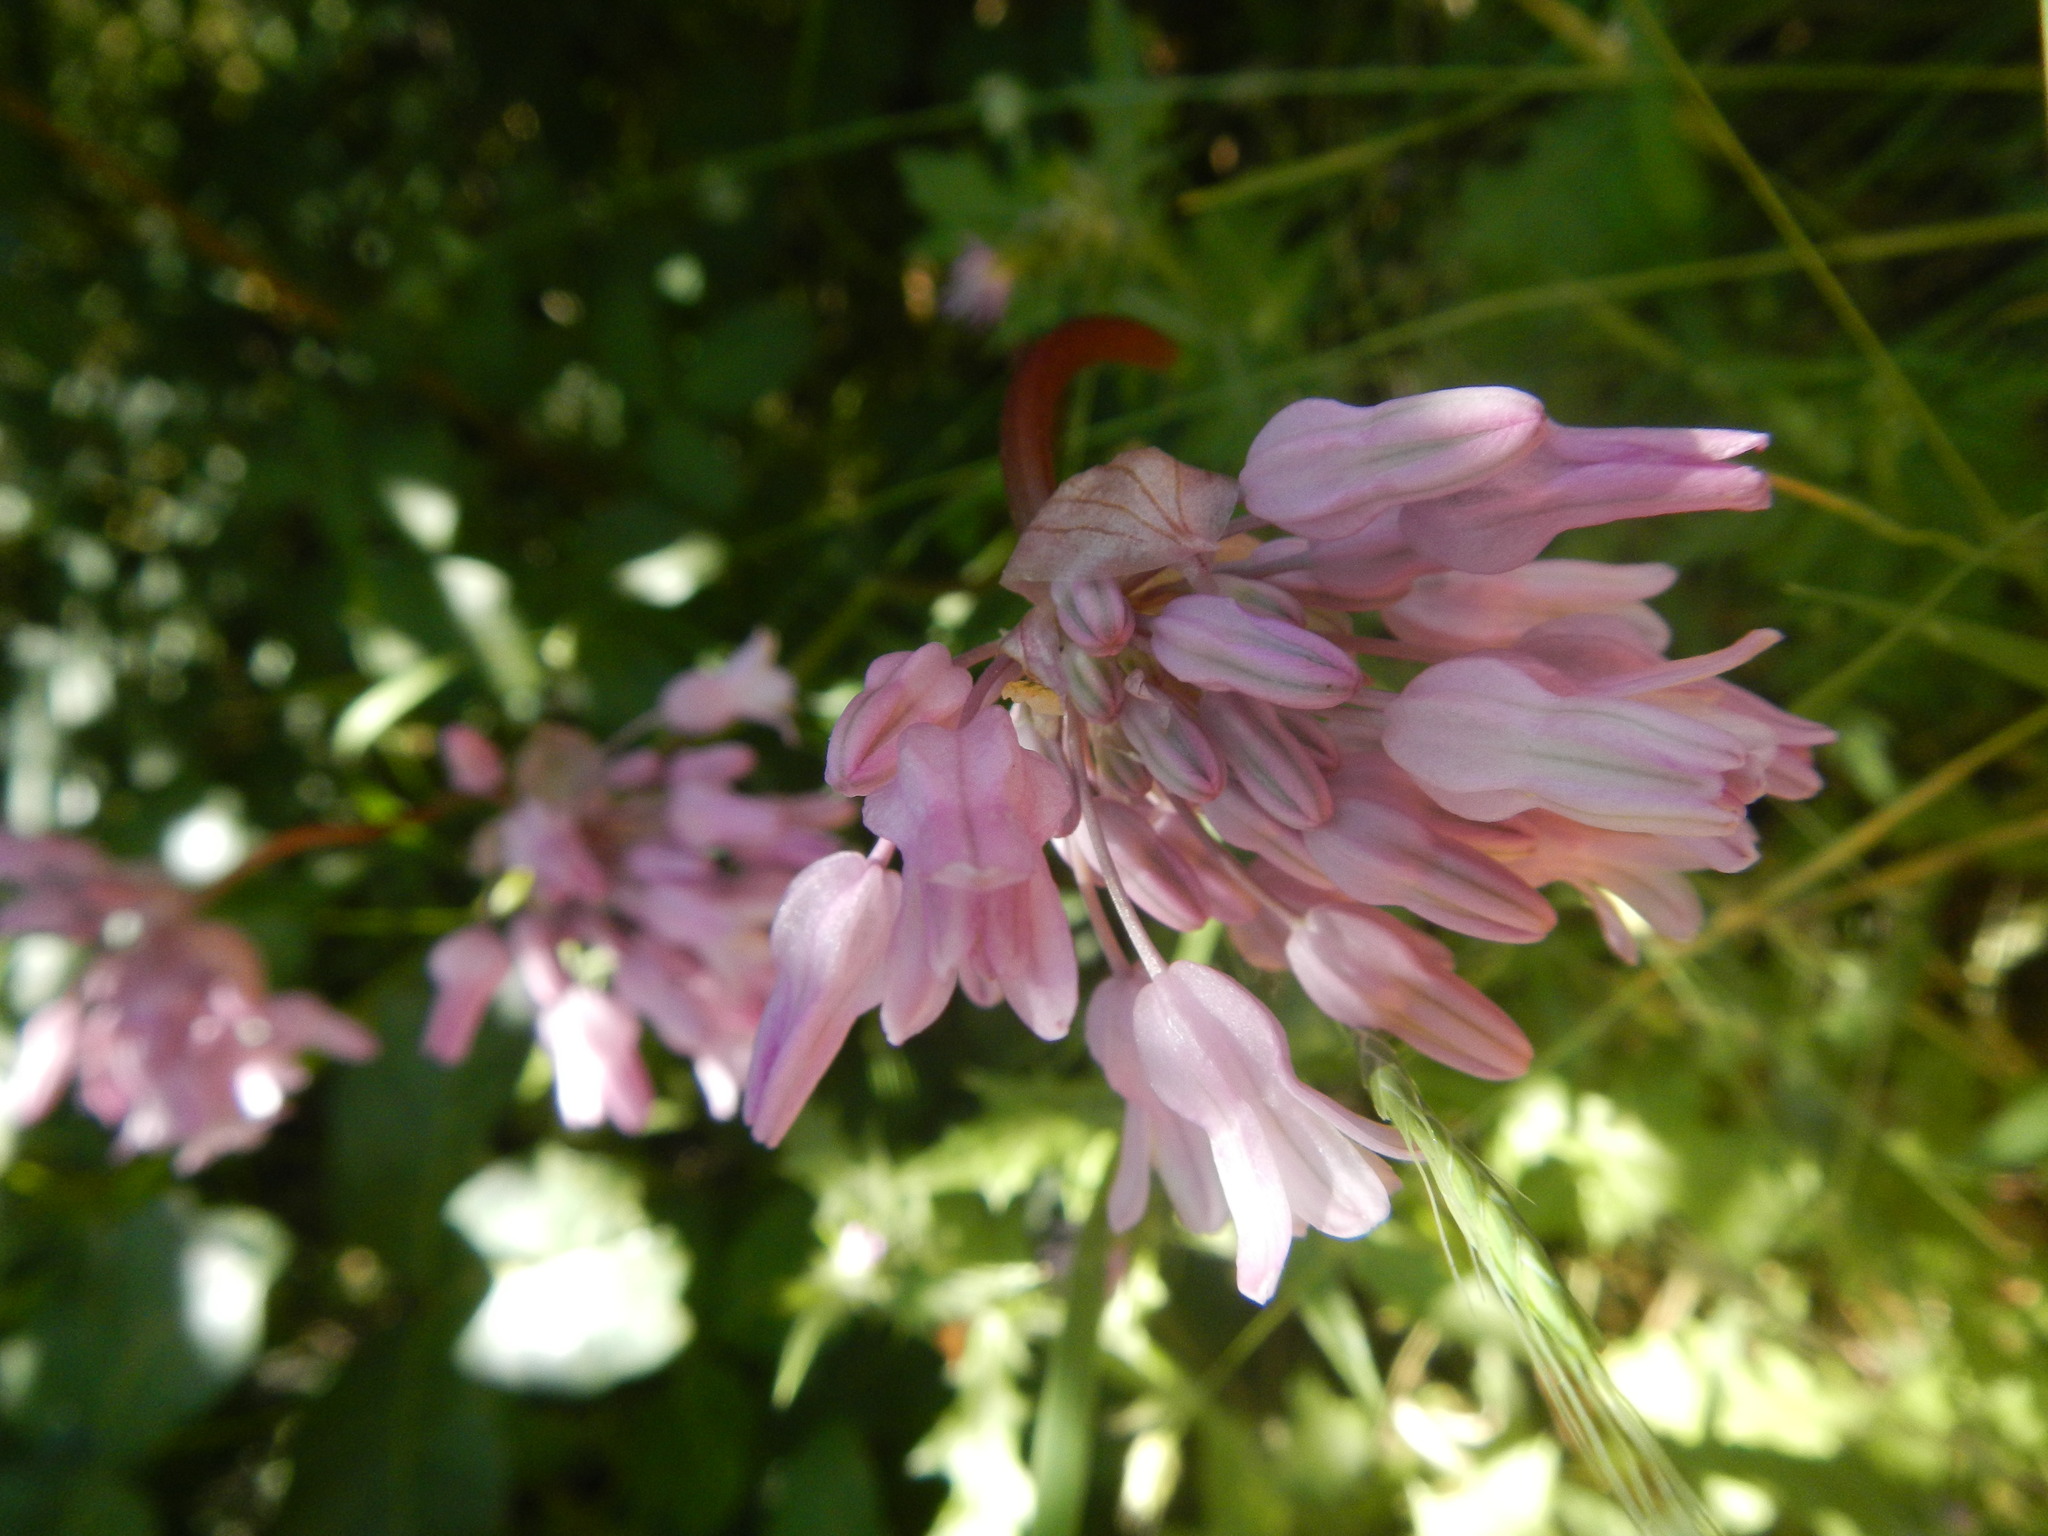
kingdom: Plantae
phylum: Tracheophyta
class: Liliopsida
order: Asparagales
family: Asparagaceae
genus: Dichelostemma
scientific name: Dichelostemma volubile
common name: Trining brodiaea
